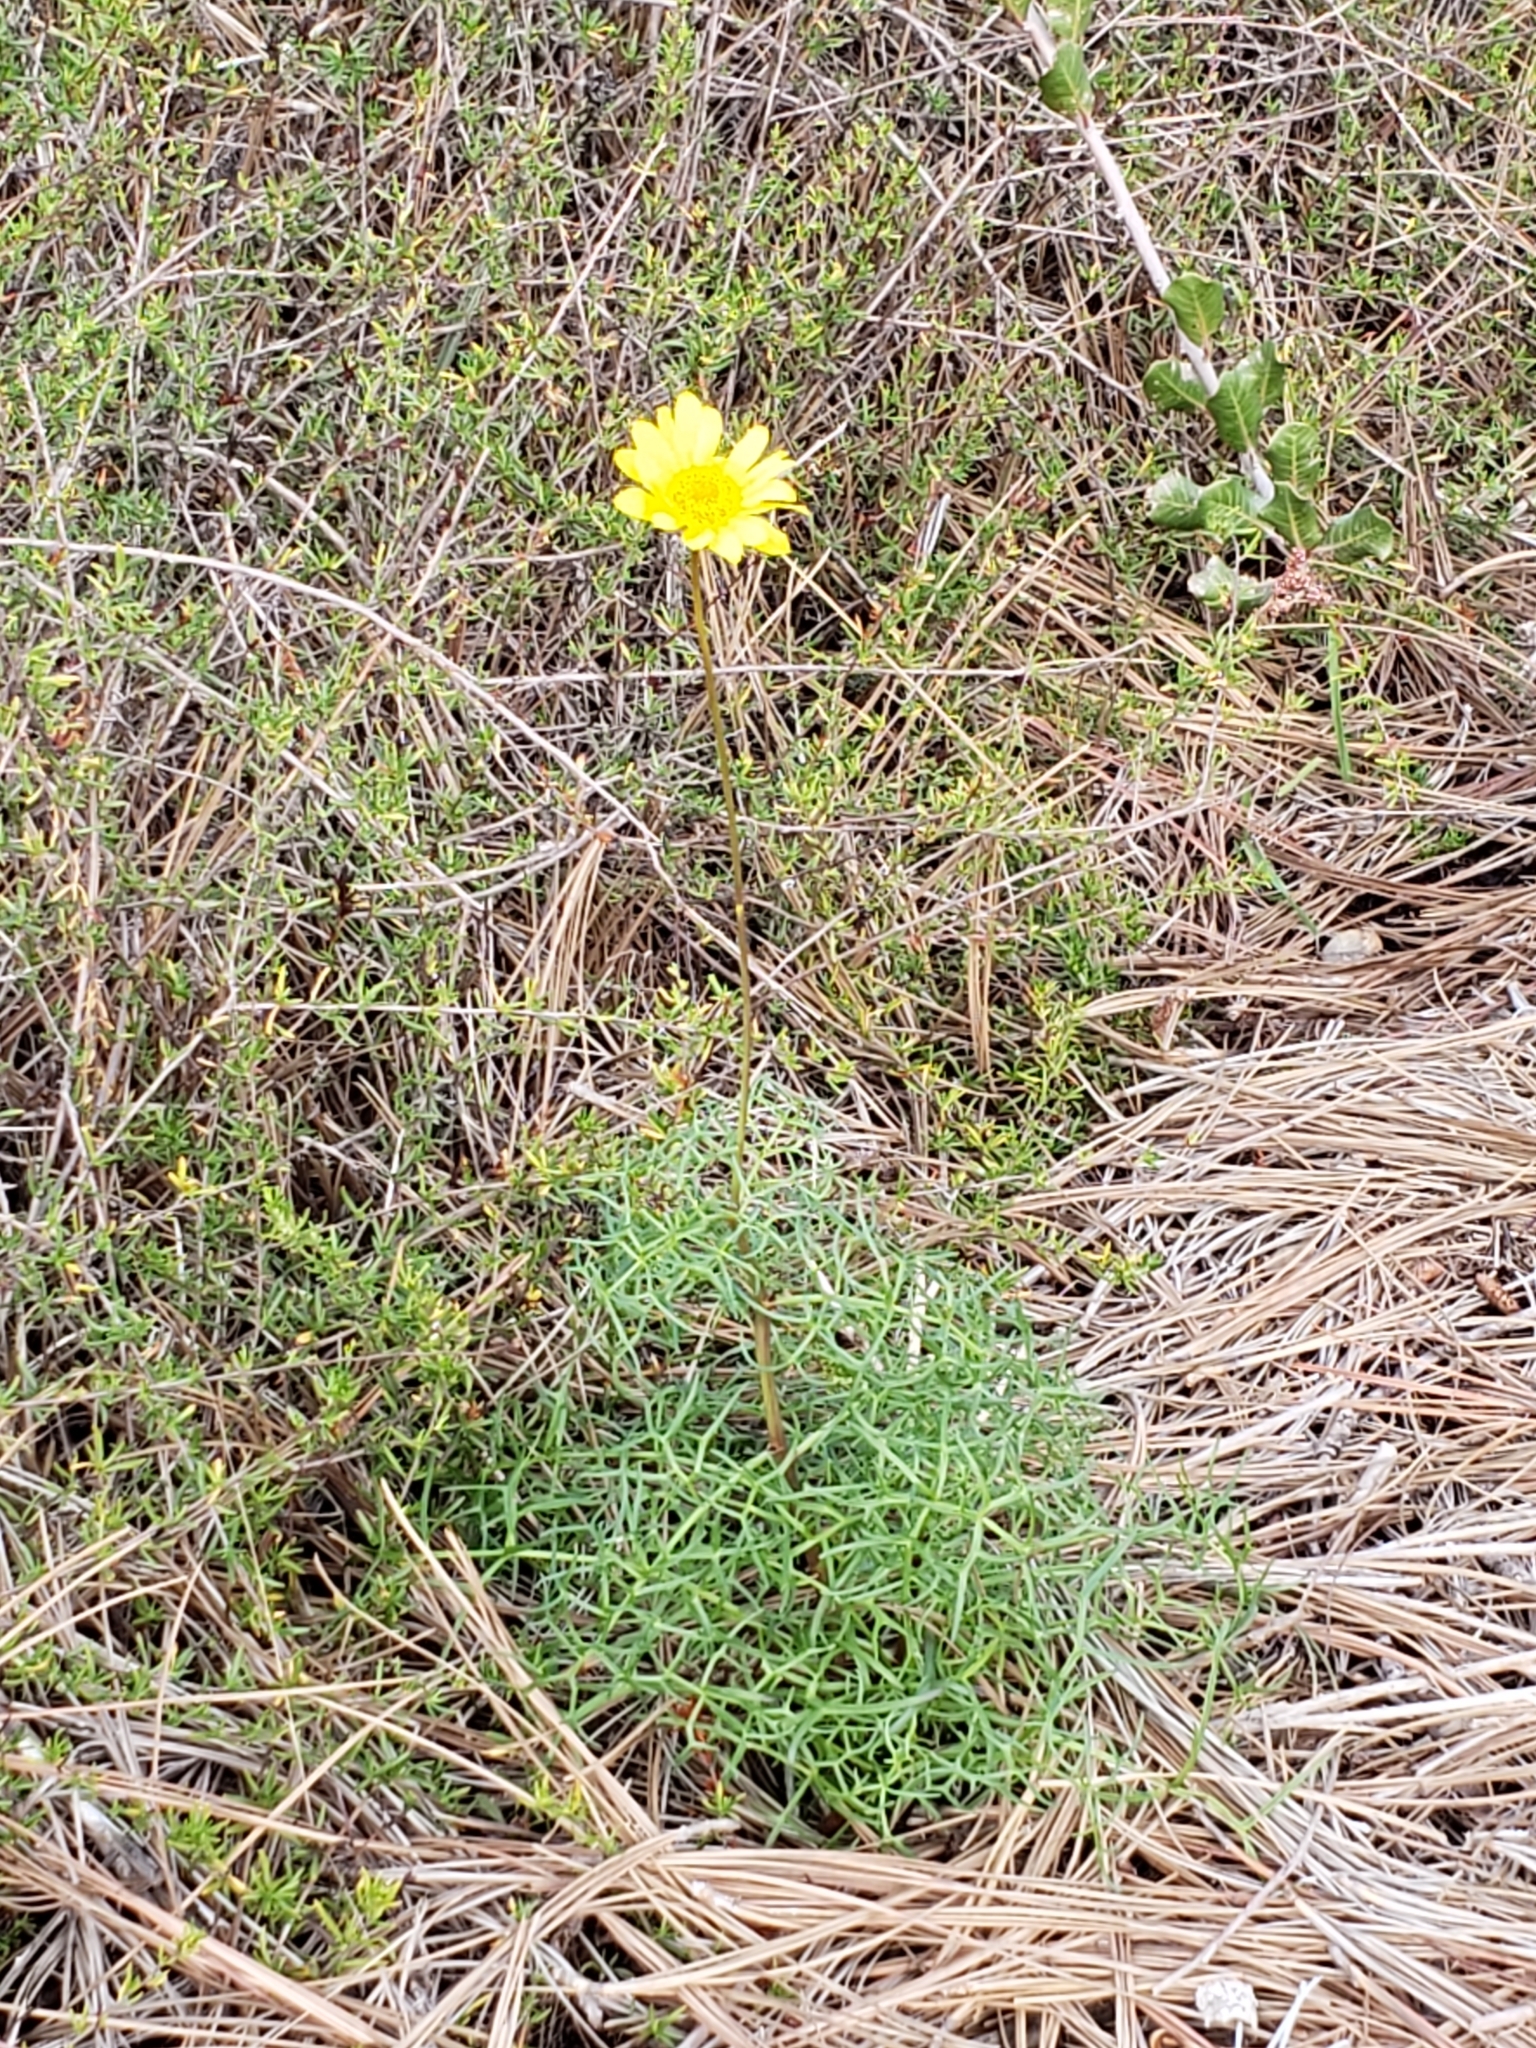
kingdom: Plantae
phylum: Tracheophyta
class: Magnoliopsida
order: Asterales
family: Asteraceae
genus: Coreopsis
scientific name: Coreopsis maritima
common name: Sea-dahlia
